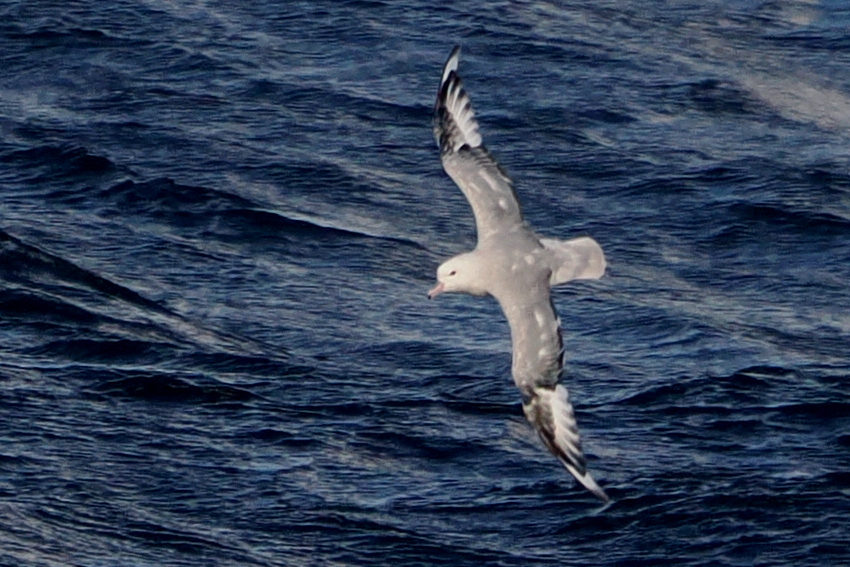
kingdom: Animalia
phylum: Chordata
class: Aves
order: Procellariiformes
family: Procellariidae
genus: Fulmarus
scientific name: Fulmarus glacialoides
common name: Southern fulmar
